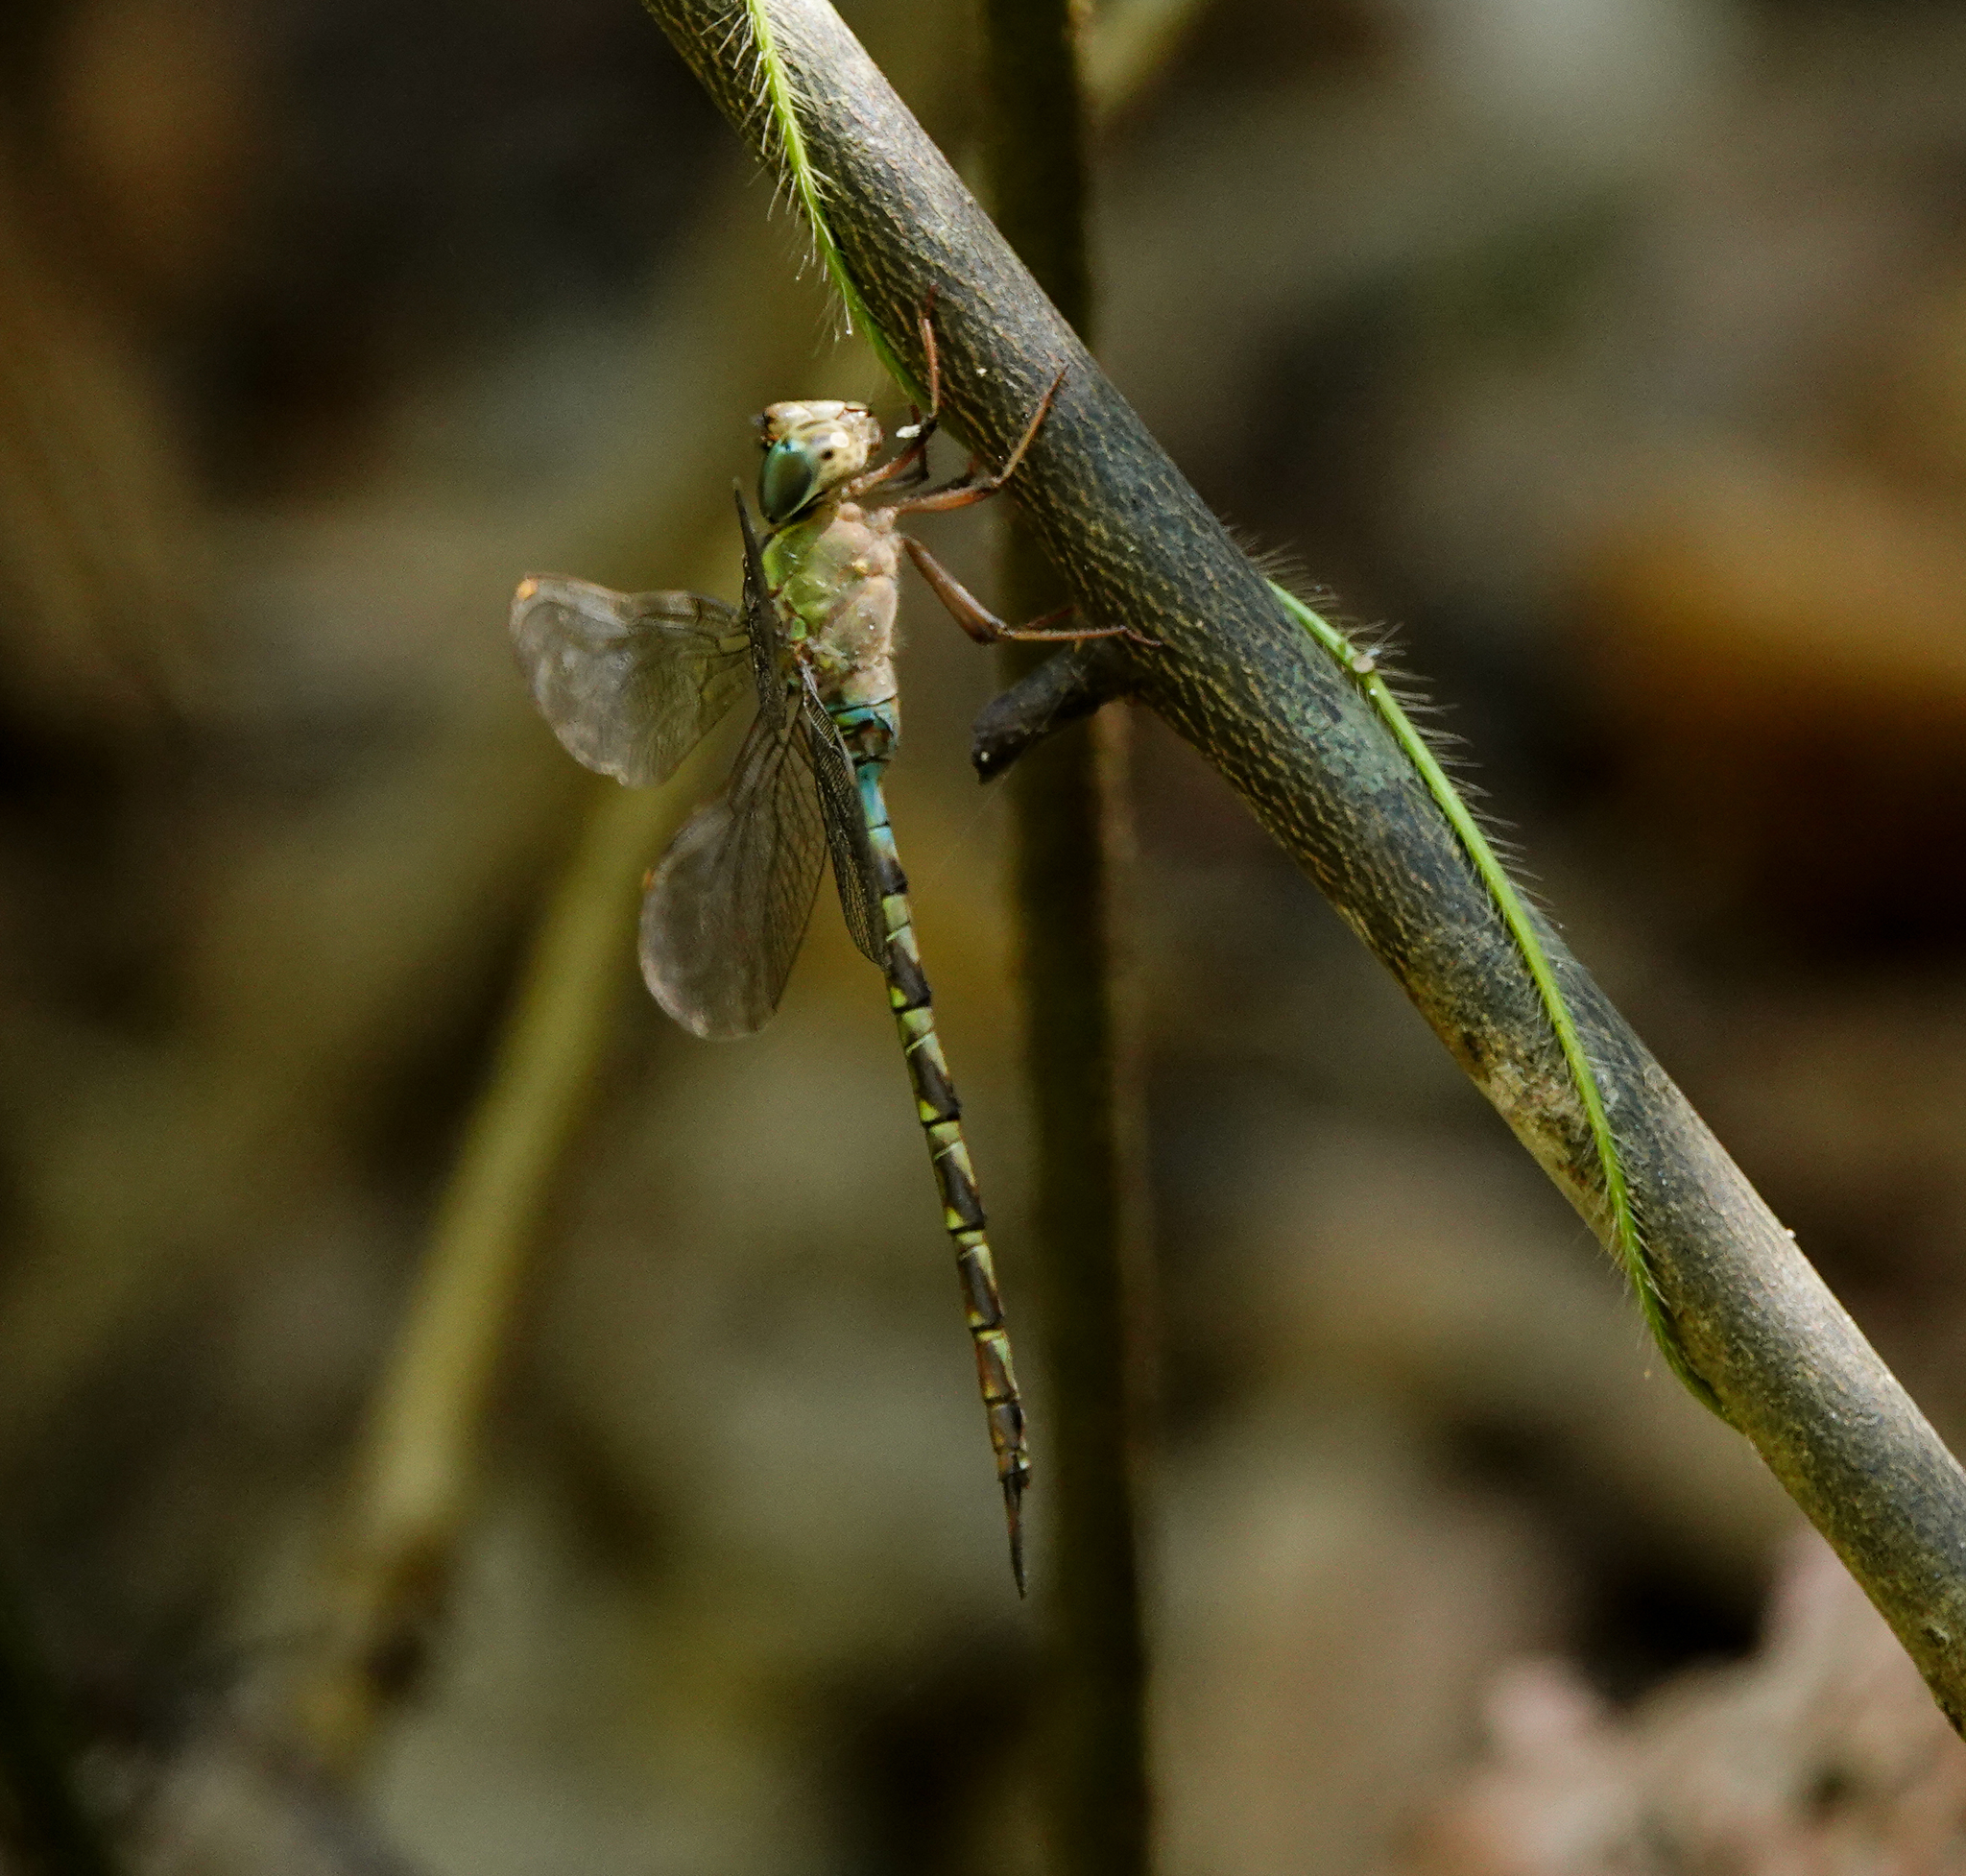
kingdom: Animalia
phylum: Arthropoda
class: Insecta
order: Odonata
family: Aeshnidae
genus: Gynacantha
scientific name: Gynacantha subinterrupta
